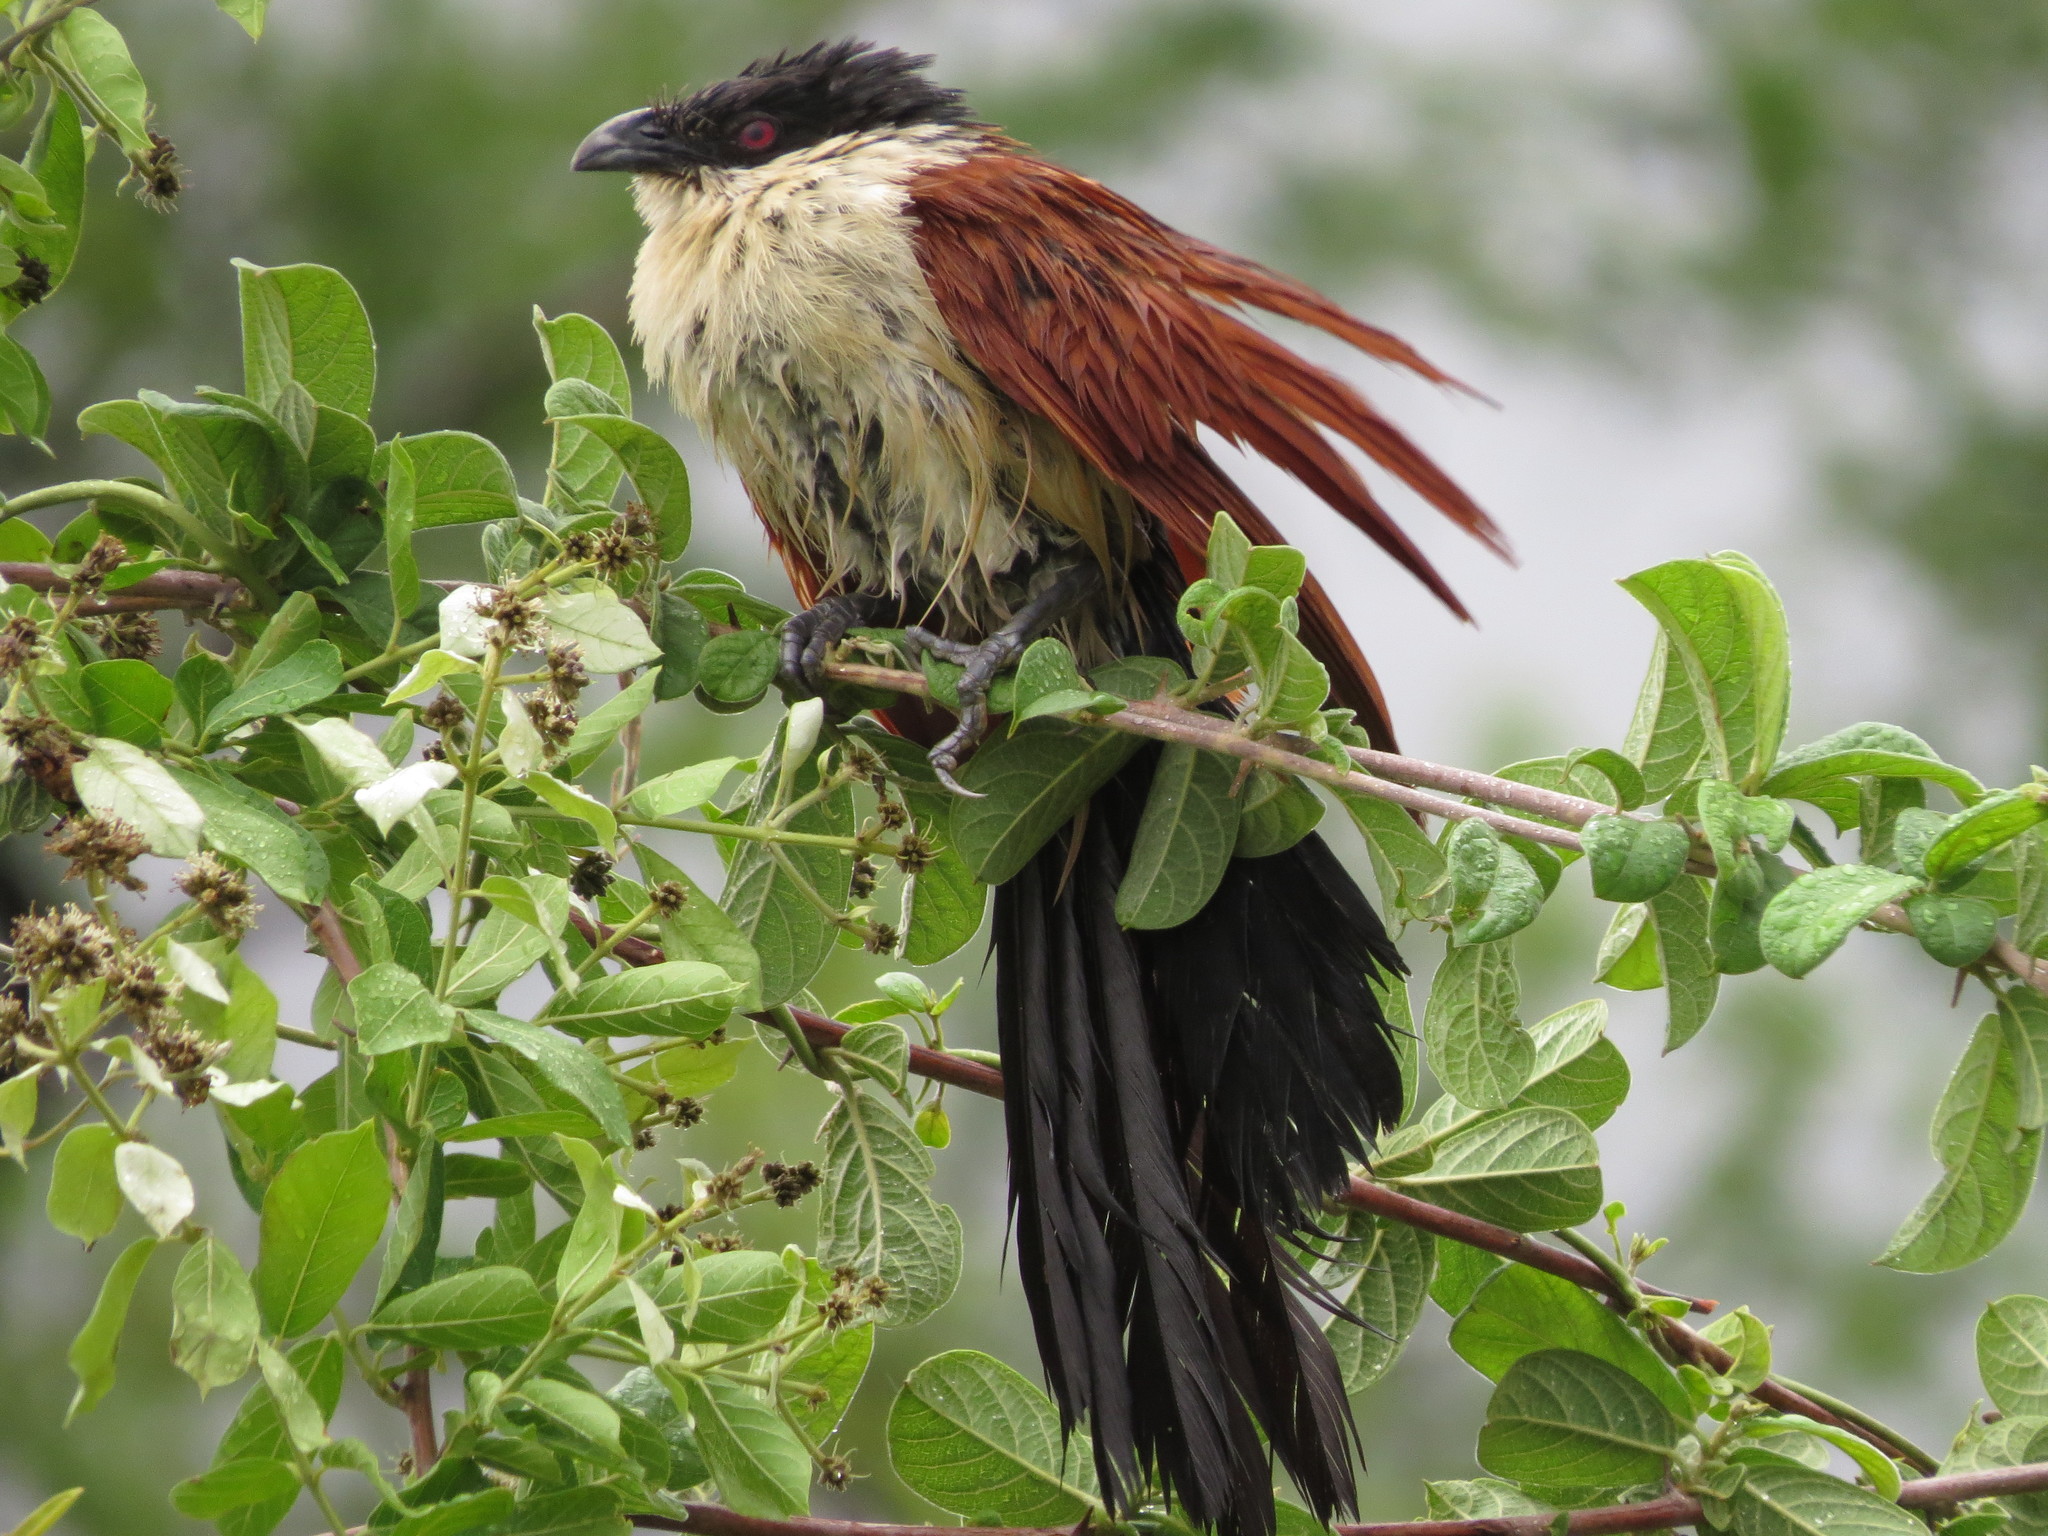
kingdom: Animalia
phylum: Chordata
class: Aves
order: Cuculiformes
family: Cuculidae
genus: Centropus
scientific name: Centropus senegalensis
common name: Senegal coucal
